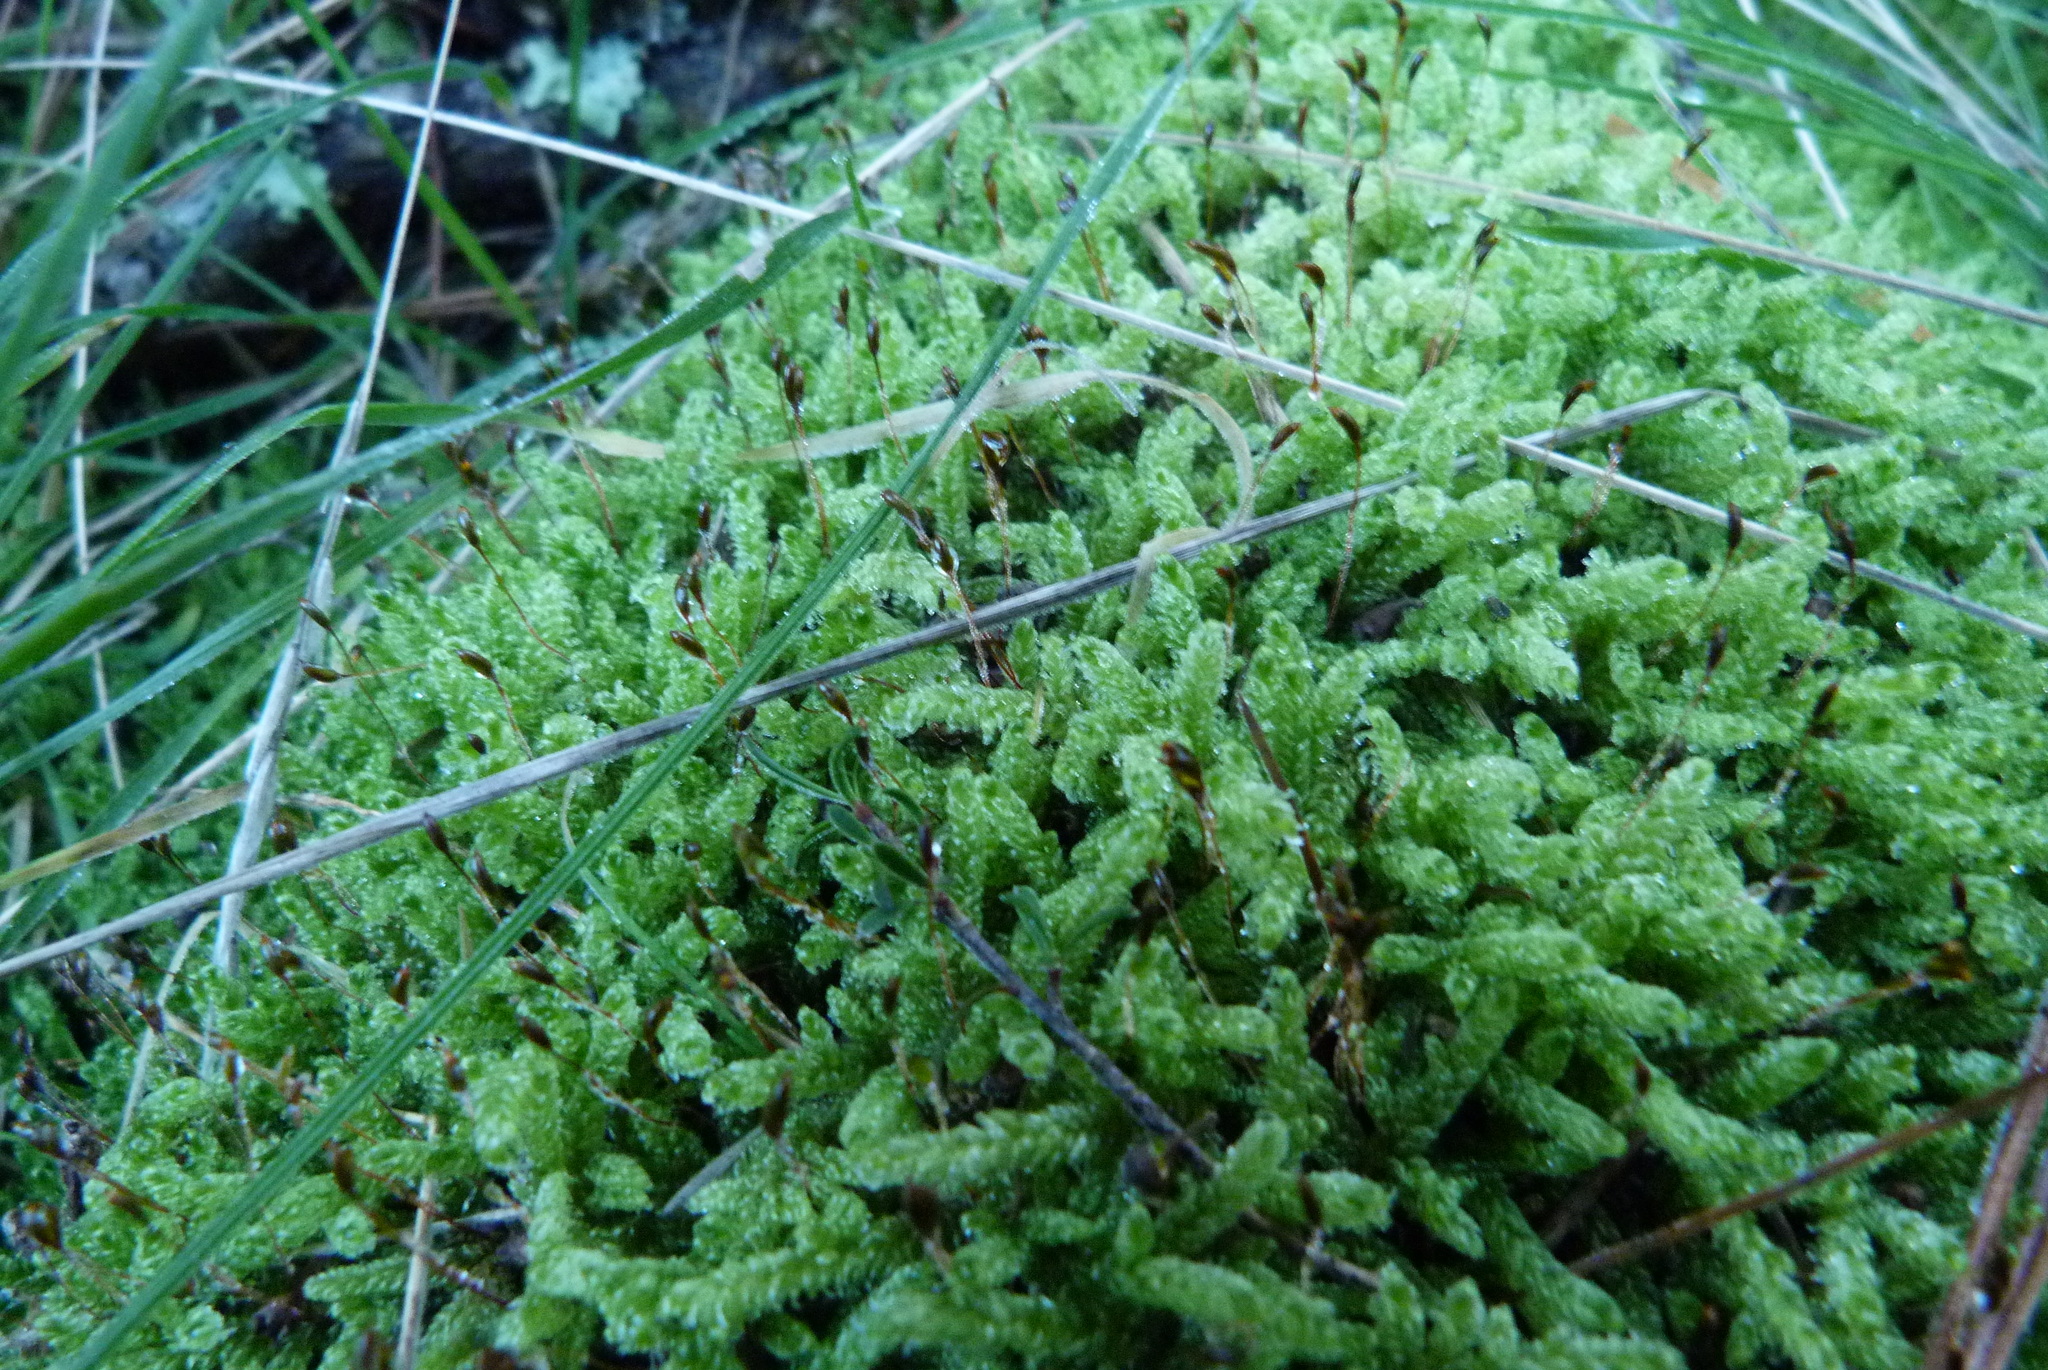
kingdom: Plantae
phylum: Bryophyta
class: Bryopsida
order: Hypnales
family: Hypnaceae
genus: Hypnum
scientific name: Hypnum cupressiforme
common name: Cypress-leaved plait-moss
